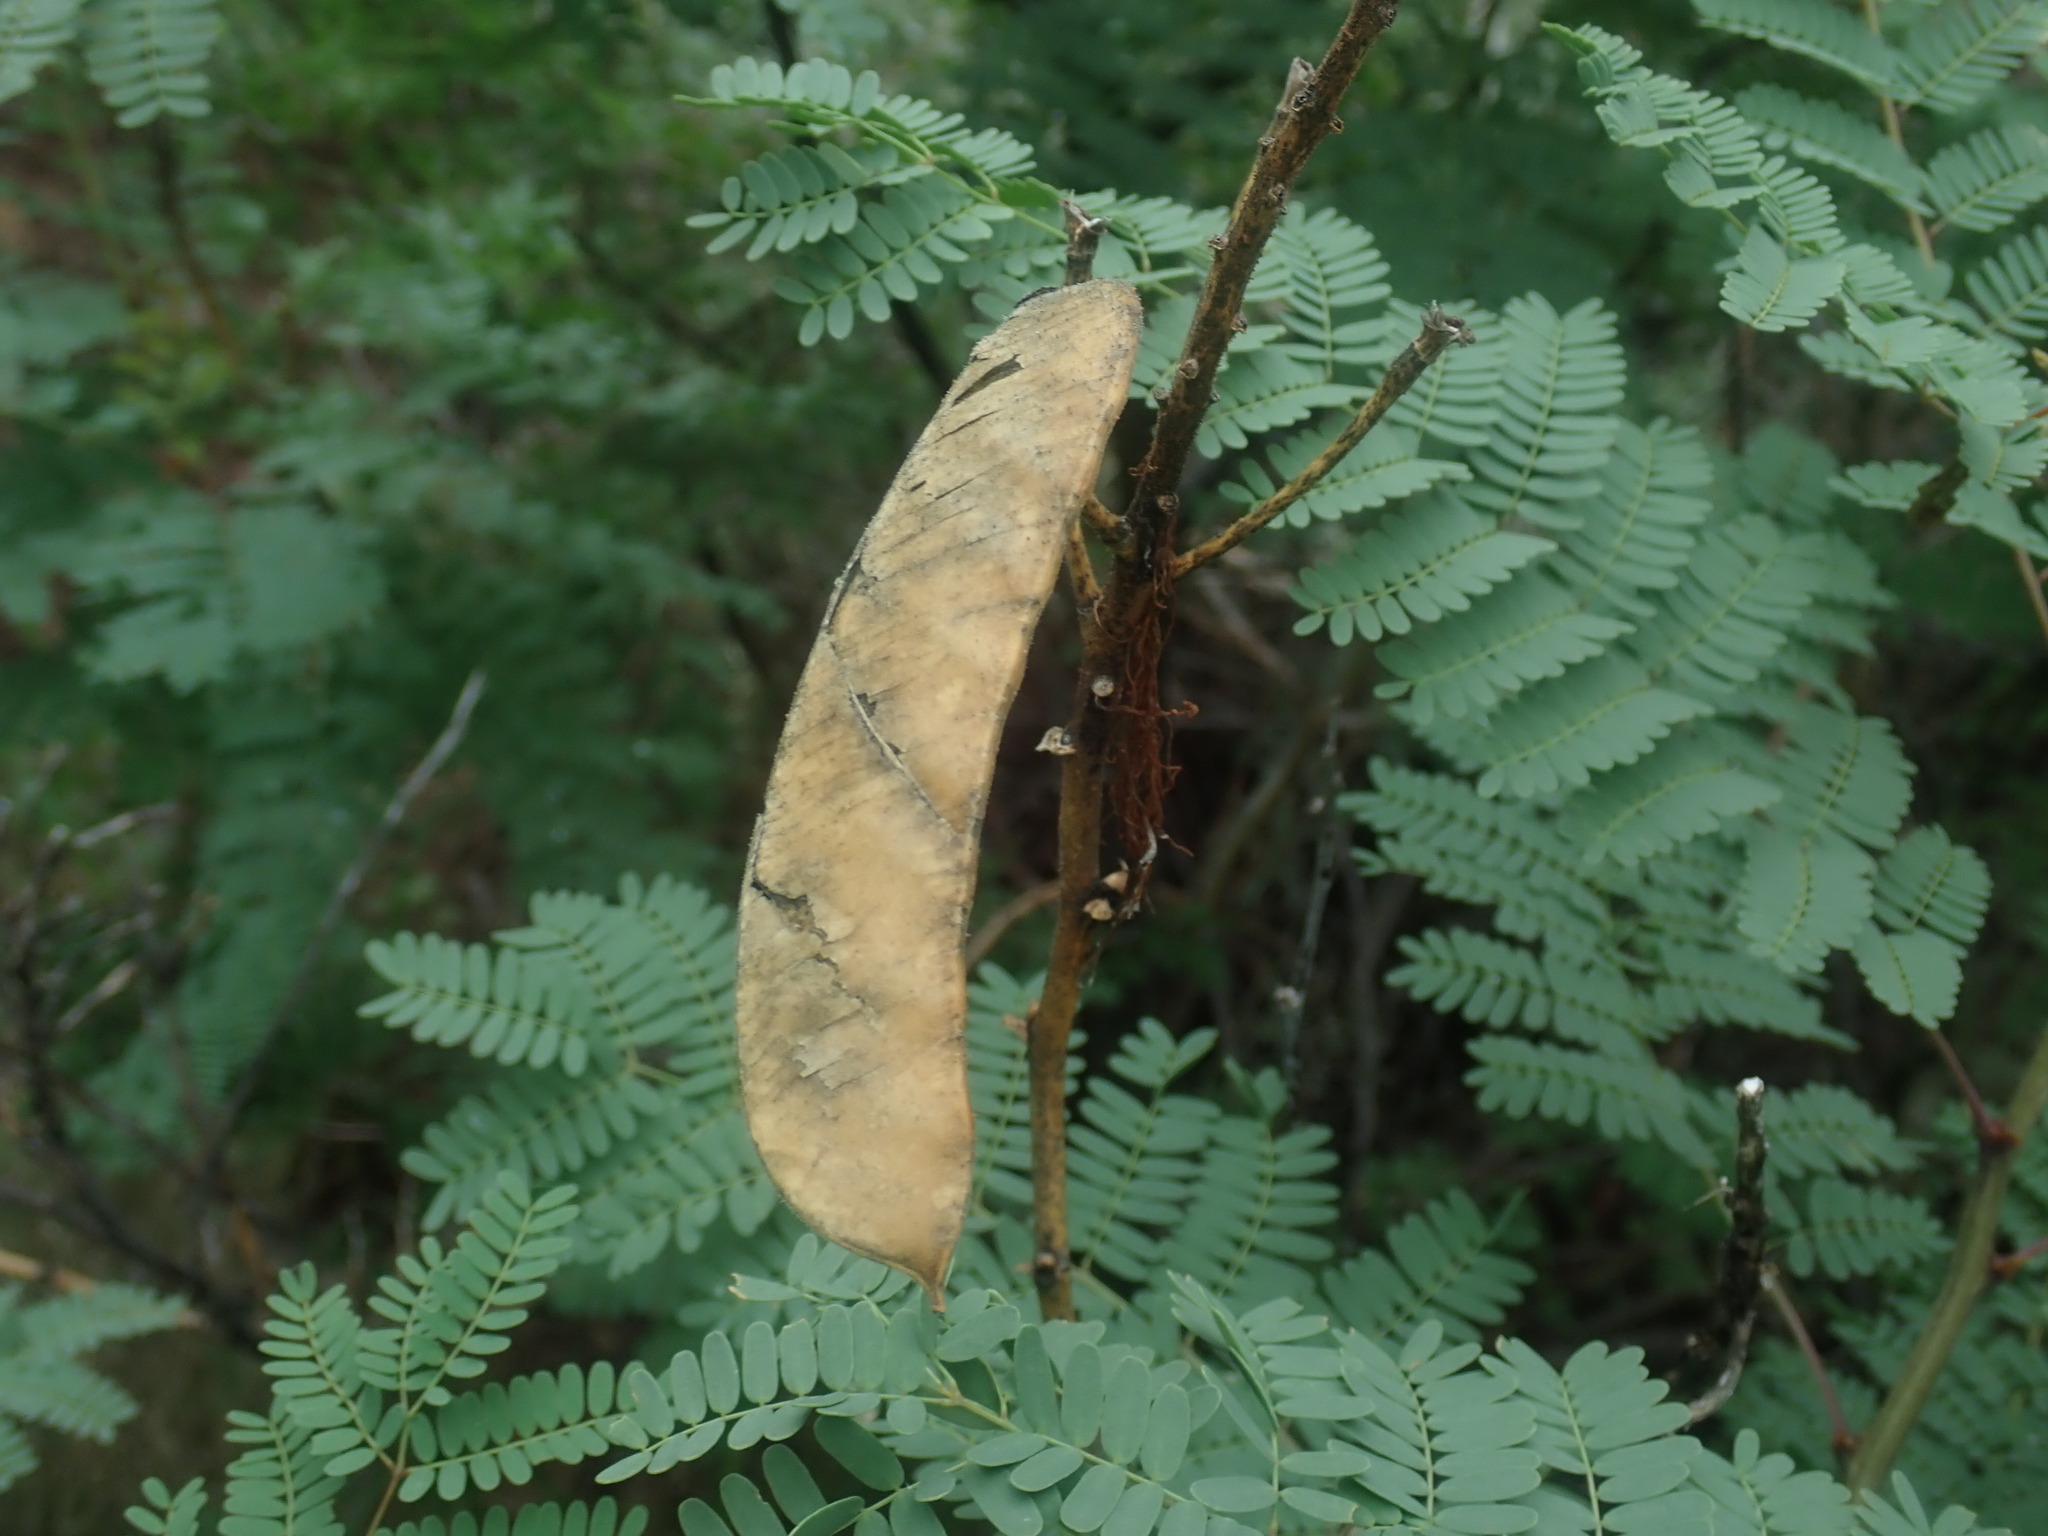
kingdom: Plantae
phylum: Tracheophyta
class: Magnoliopsida
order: Fabales
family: Fabaceae
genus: Erythrostemon
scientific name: Erythrostemon gilliesii
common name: Bird-of-paradise shrub
